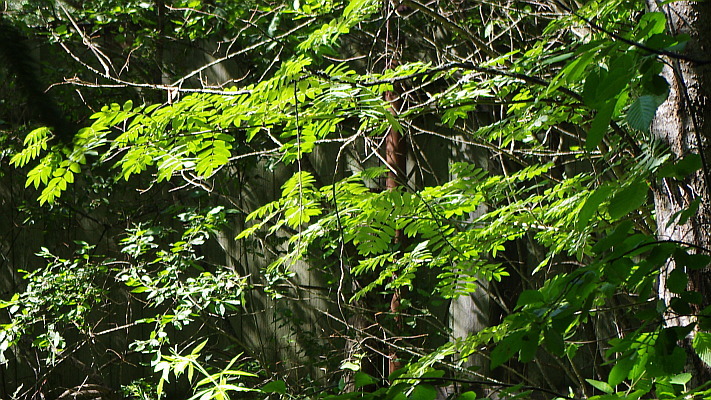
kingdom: Plantae
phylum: Tracheophyta
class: Magnoliopsida
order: Rosales
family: Rosaceae
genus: Sorbus
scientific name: Sorbus aucuparia
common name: Rowan
